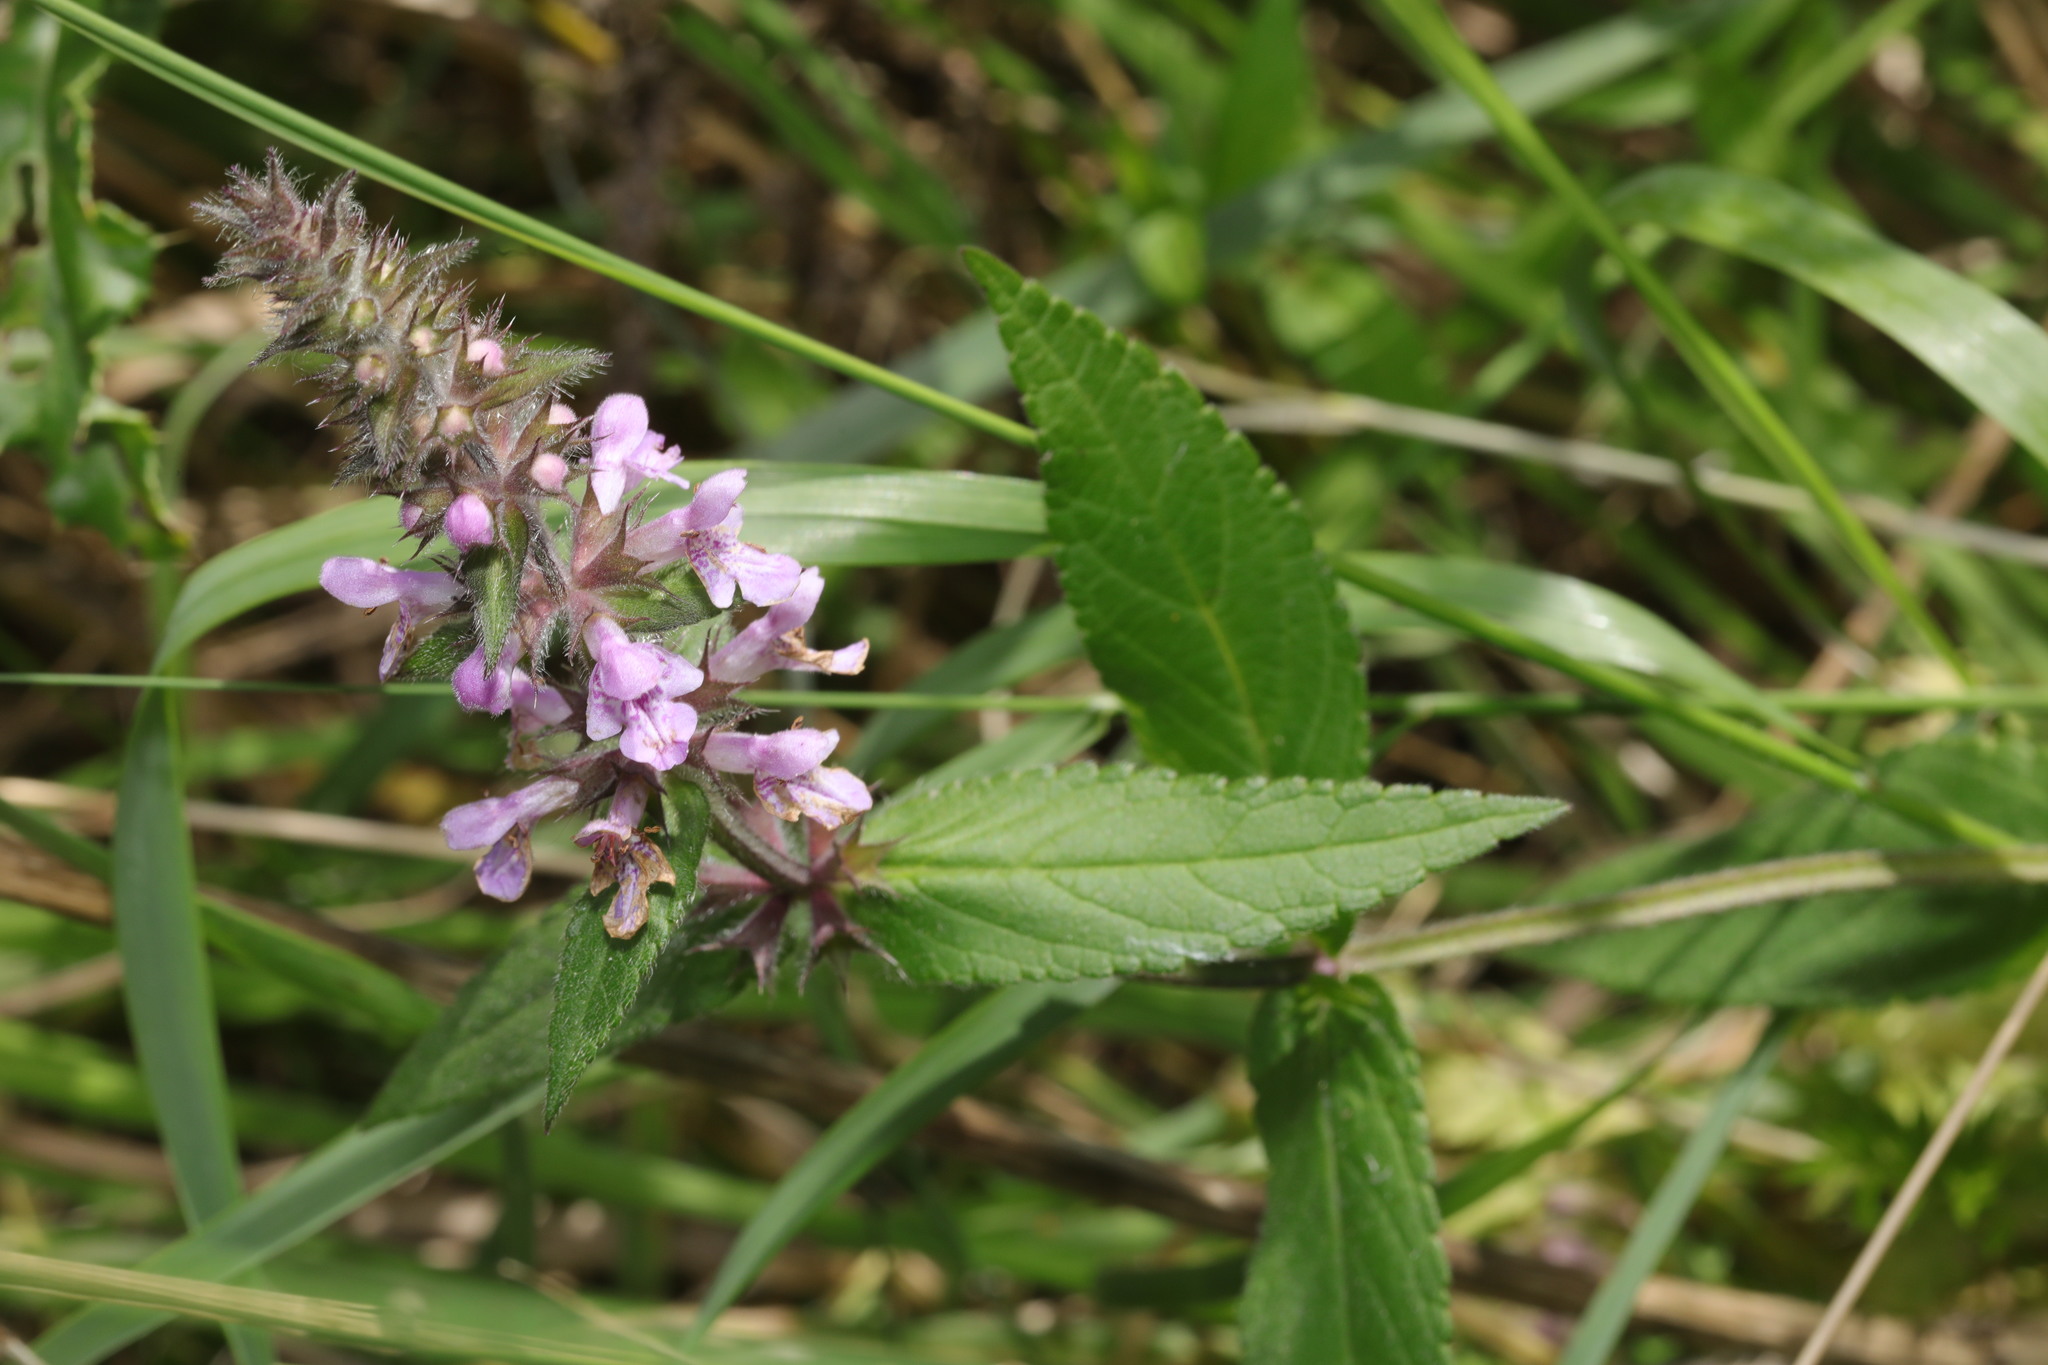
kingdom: Plantae
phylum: Tracheophyta
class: Magnoliopsida
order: Lamiales
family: Lamiaceae
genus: Stachys
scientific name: Stachys palustris
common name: Marsh woundwort
